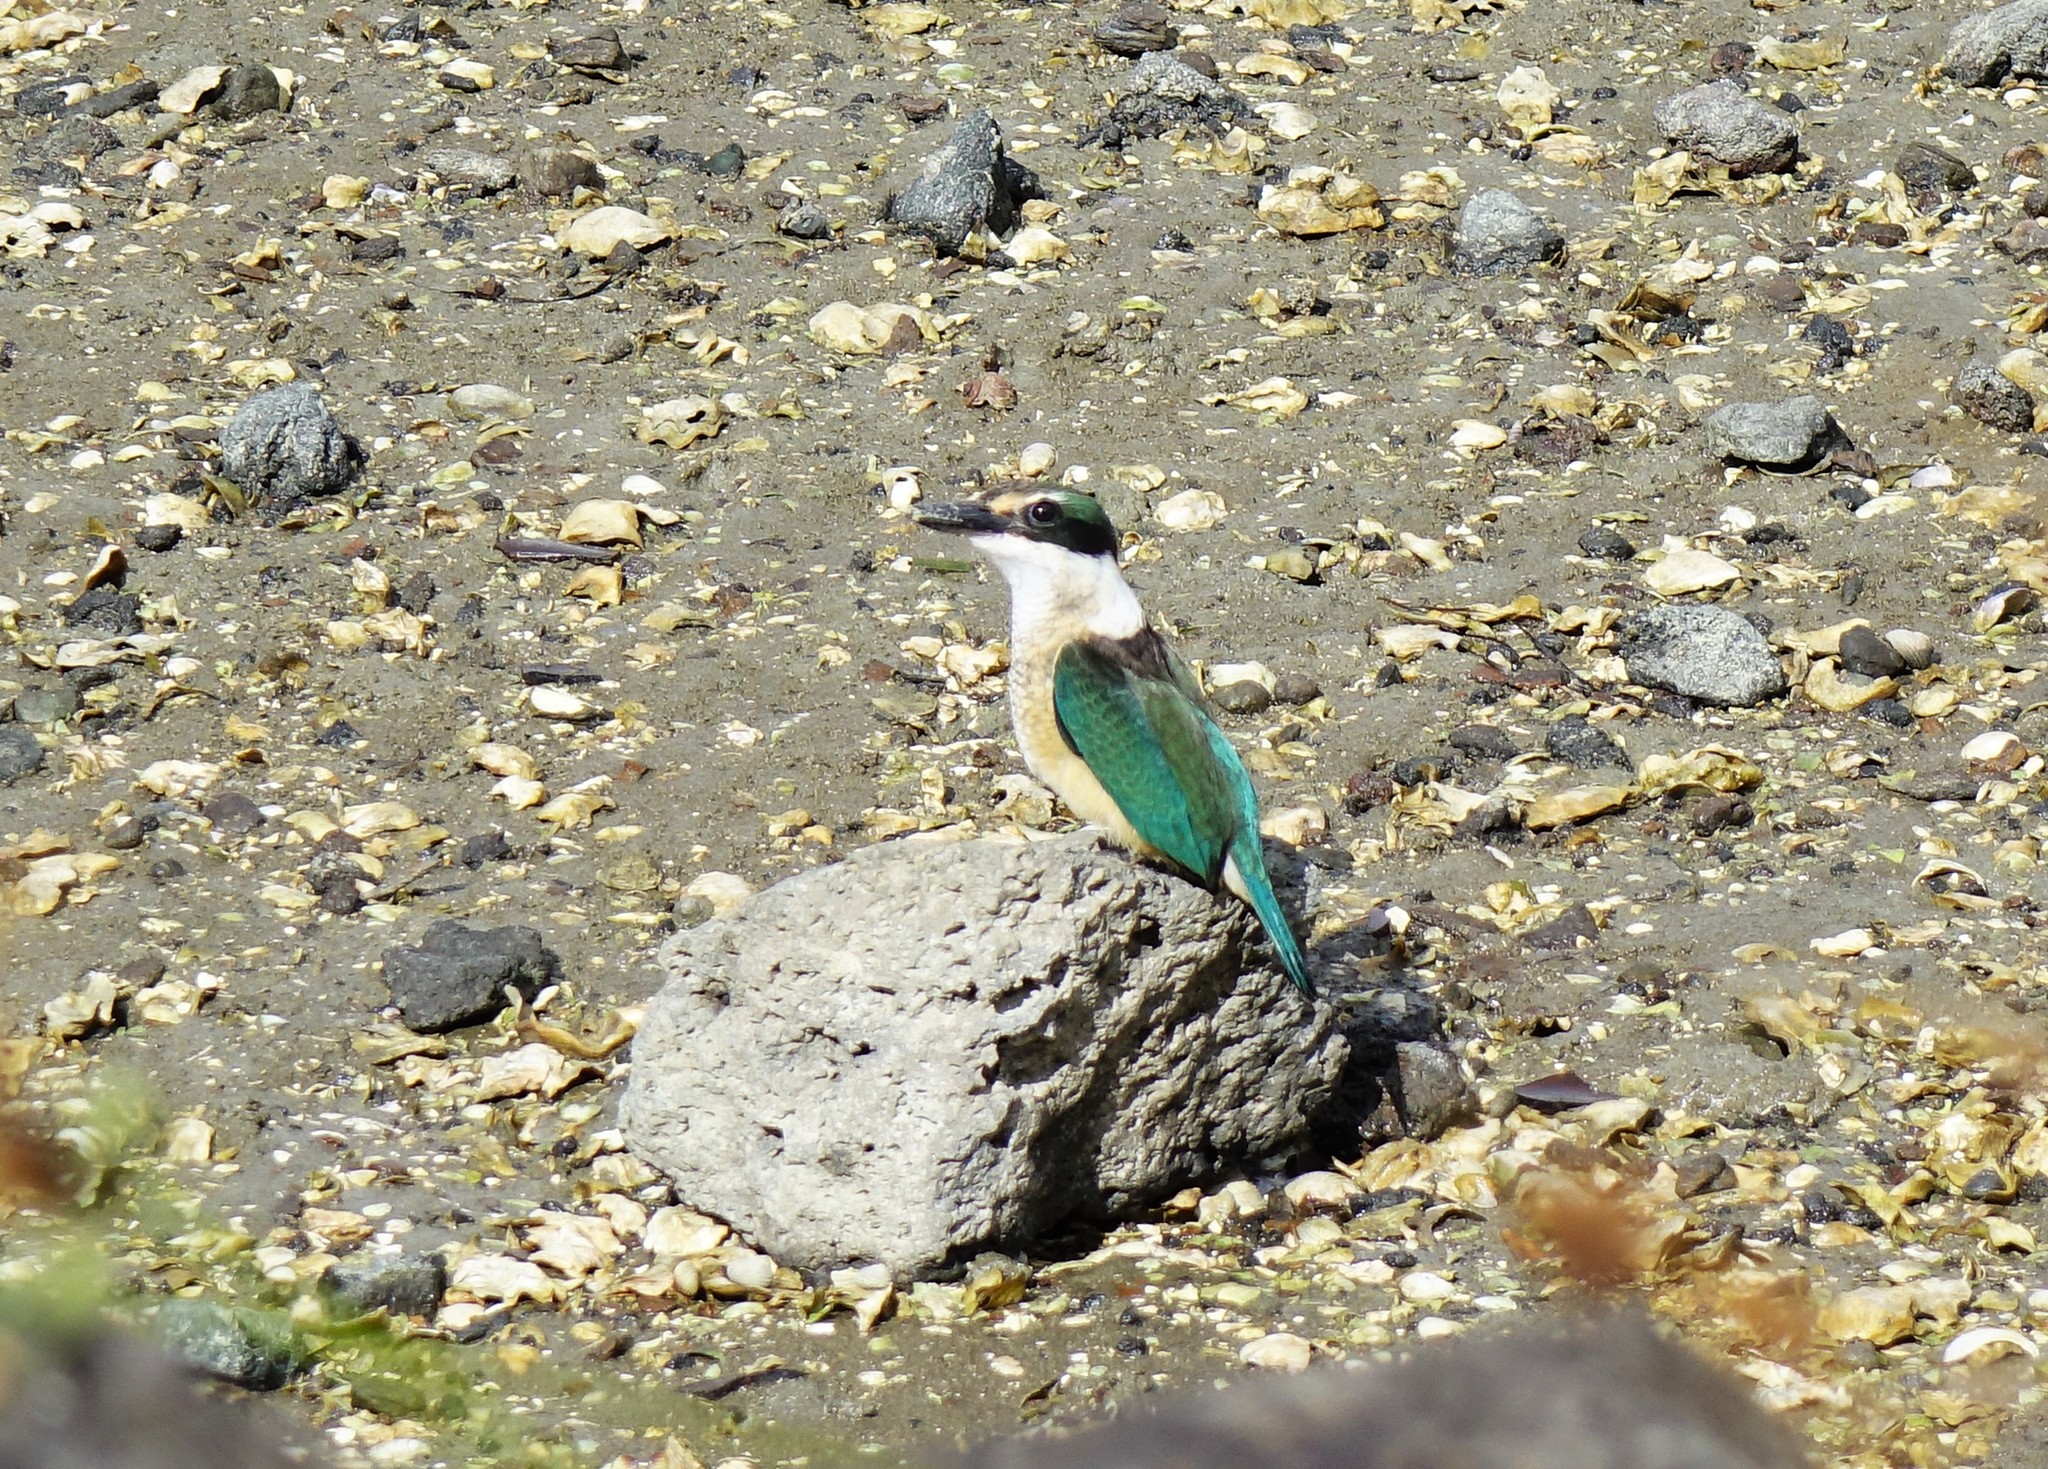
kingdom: Animalia
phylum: Chordata
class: Aves
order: Coraciiformes
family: Alcedinidae
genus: Todiramphus
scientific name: Todiramphus sanctus
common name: Sacred kingfisher
